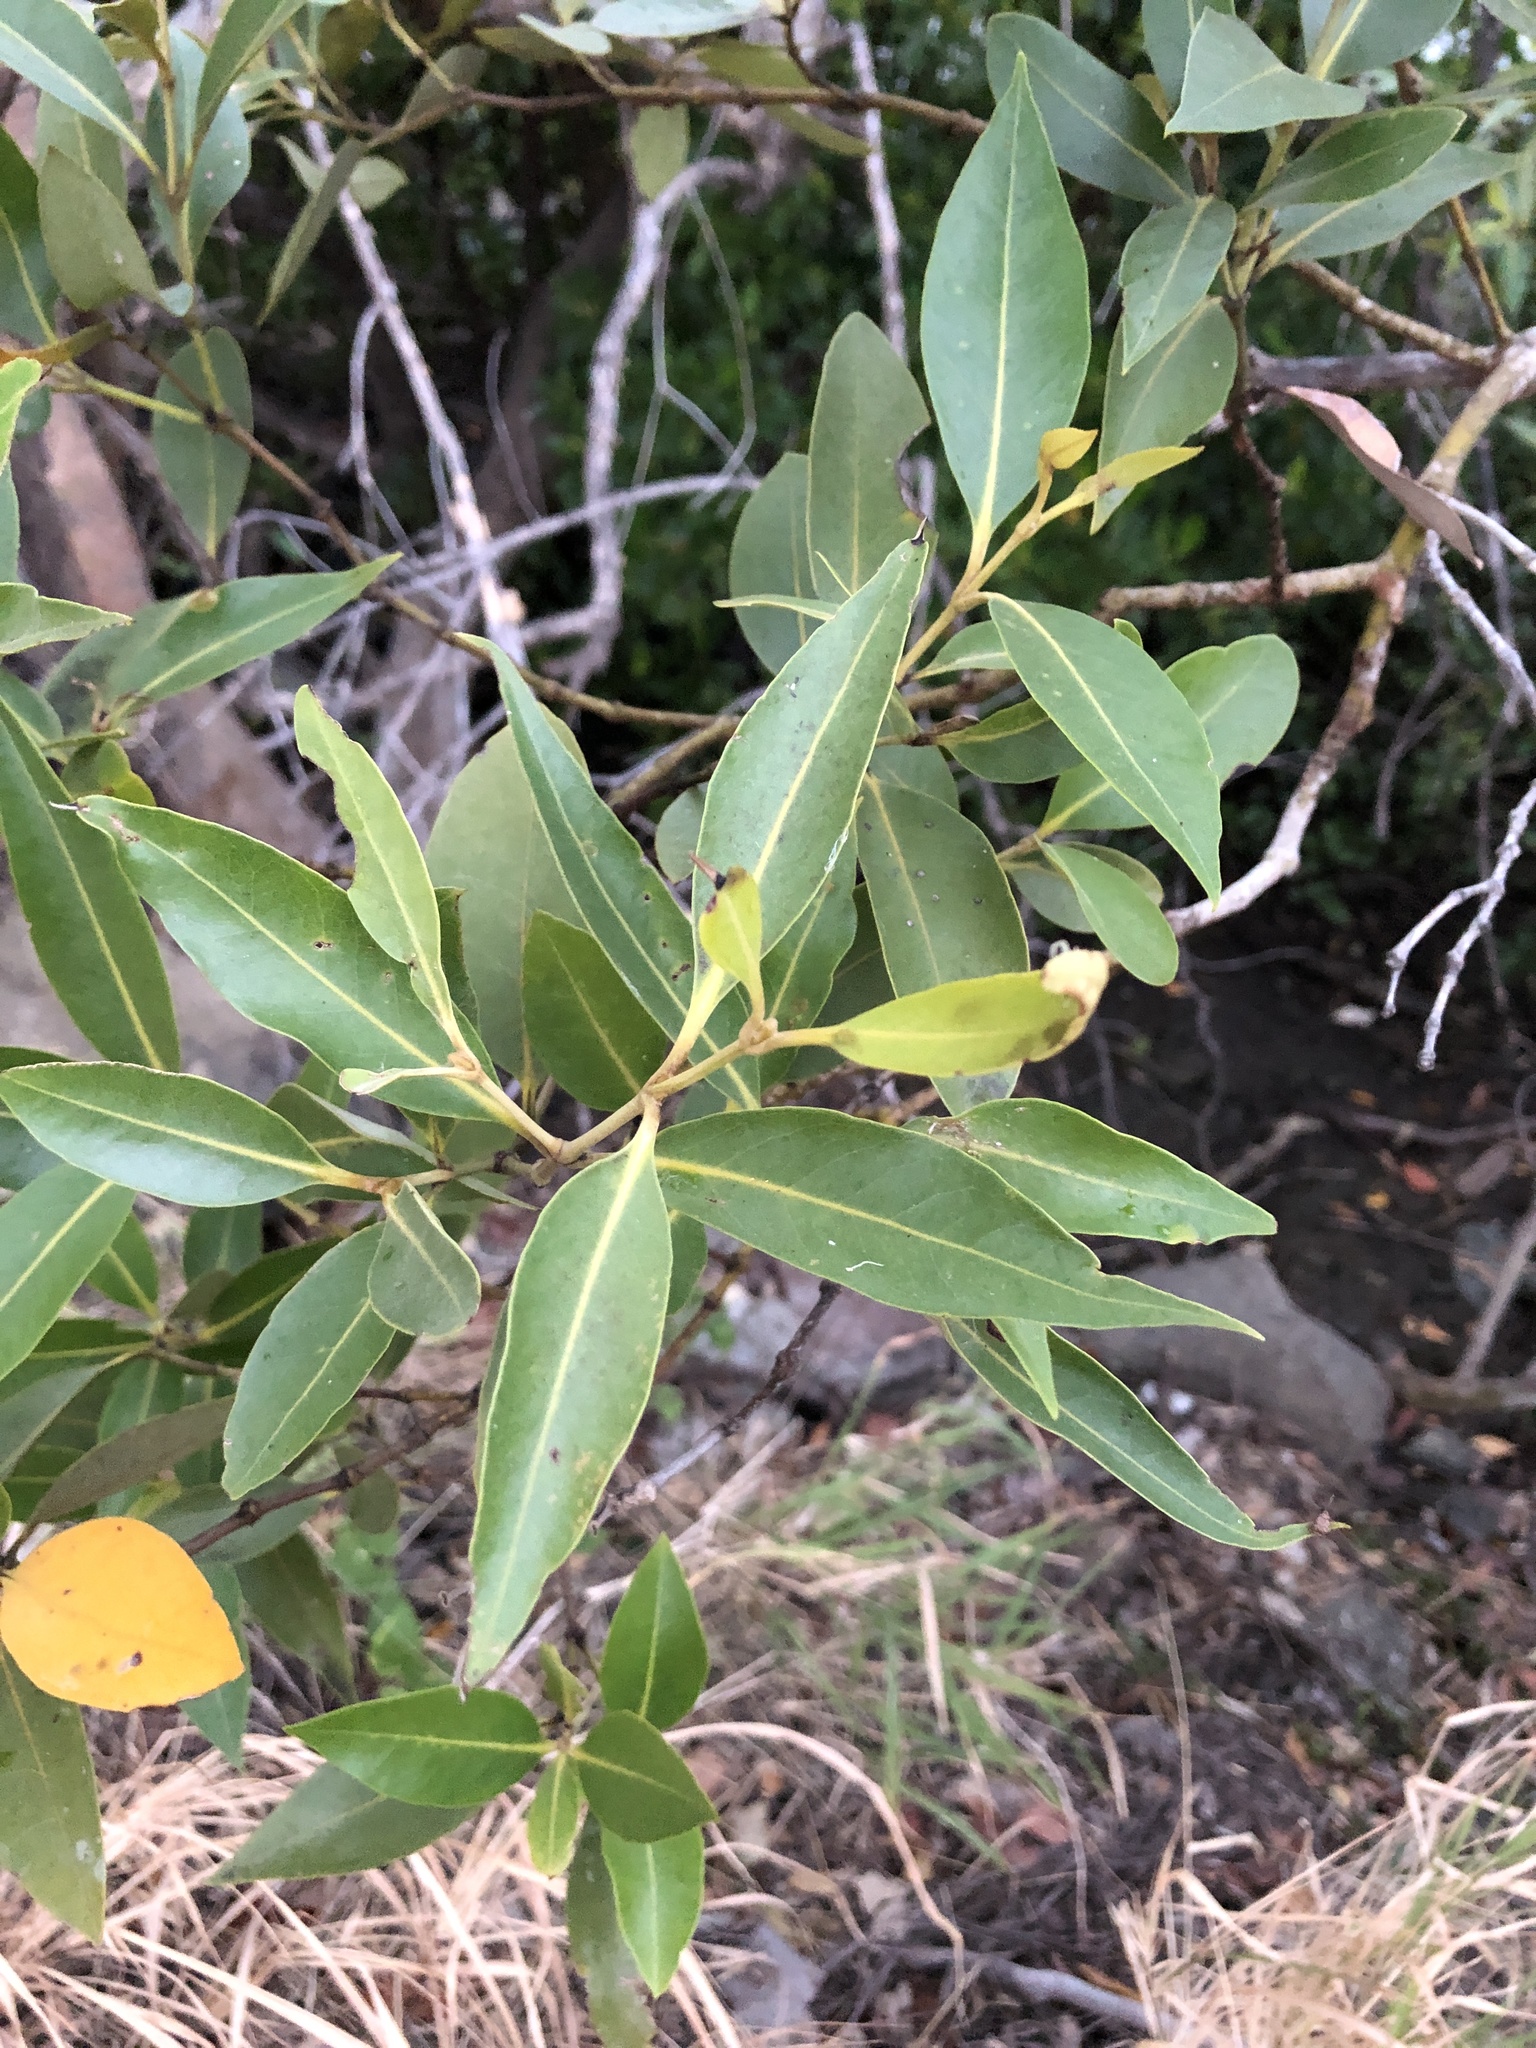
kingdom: Plantae
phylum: Tracheophyta
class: Magnoliopsida
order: Lamiales
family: Acanthaceae
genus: Avicennia
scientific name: Avicennia marina
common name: Gray mangrove
